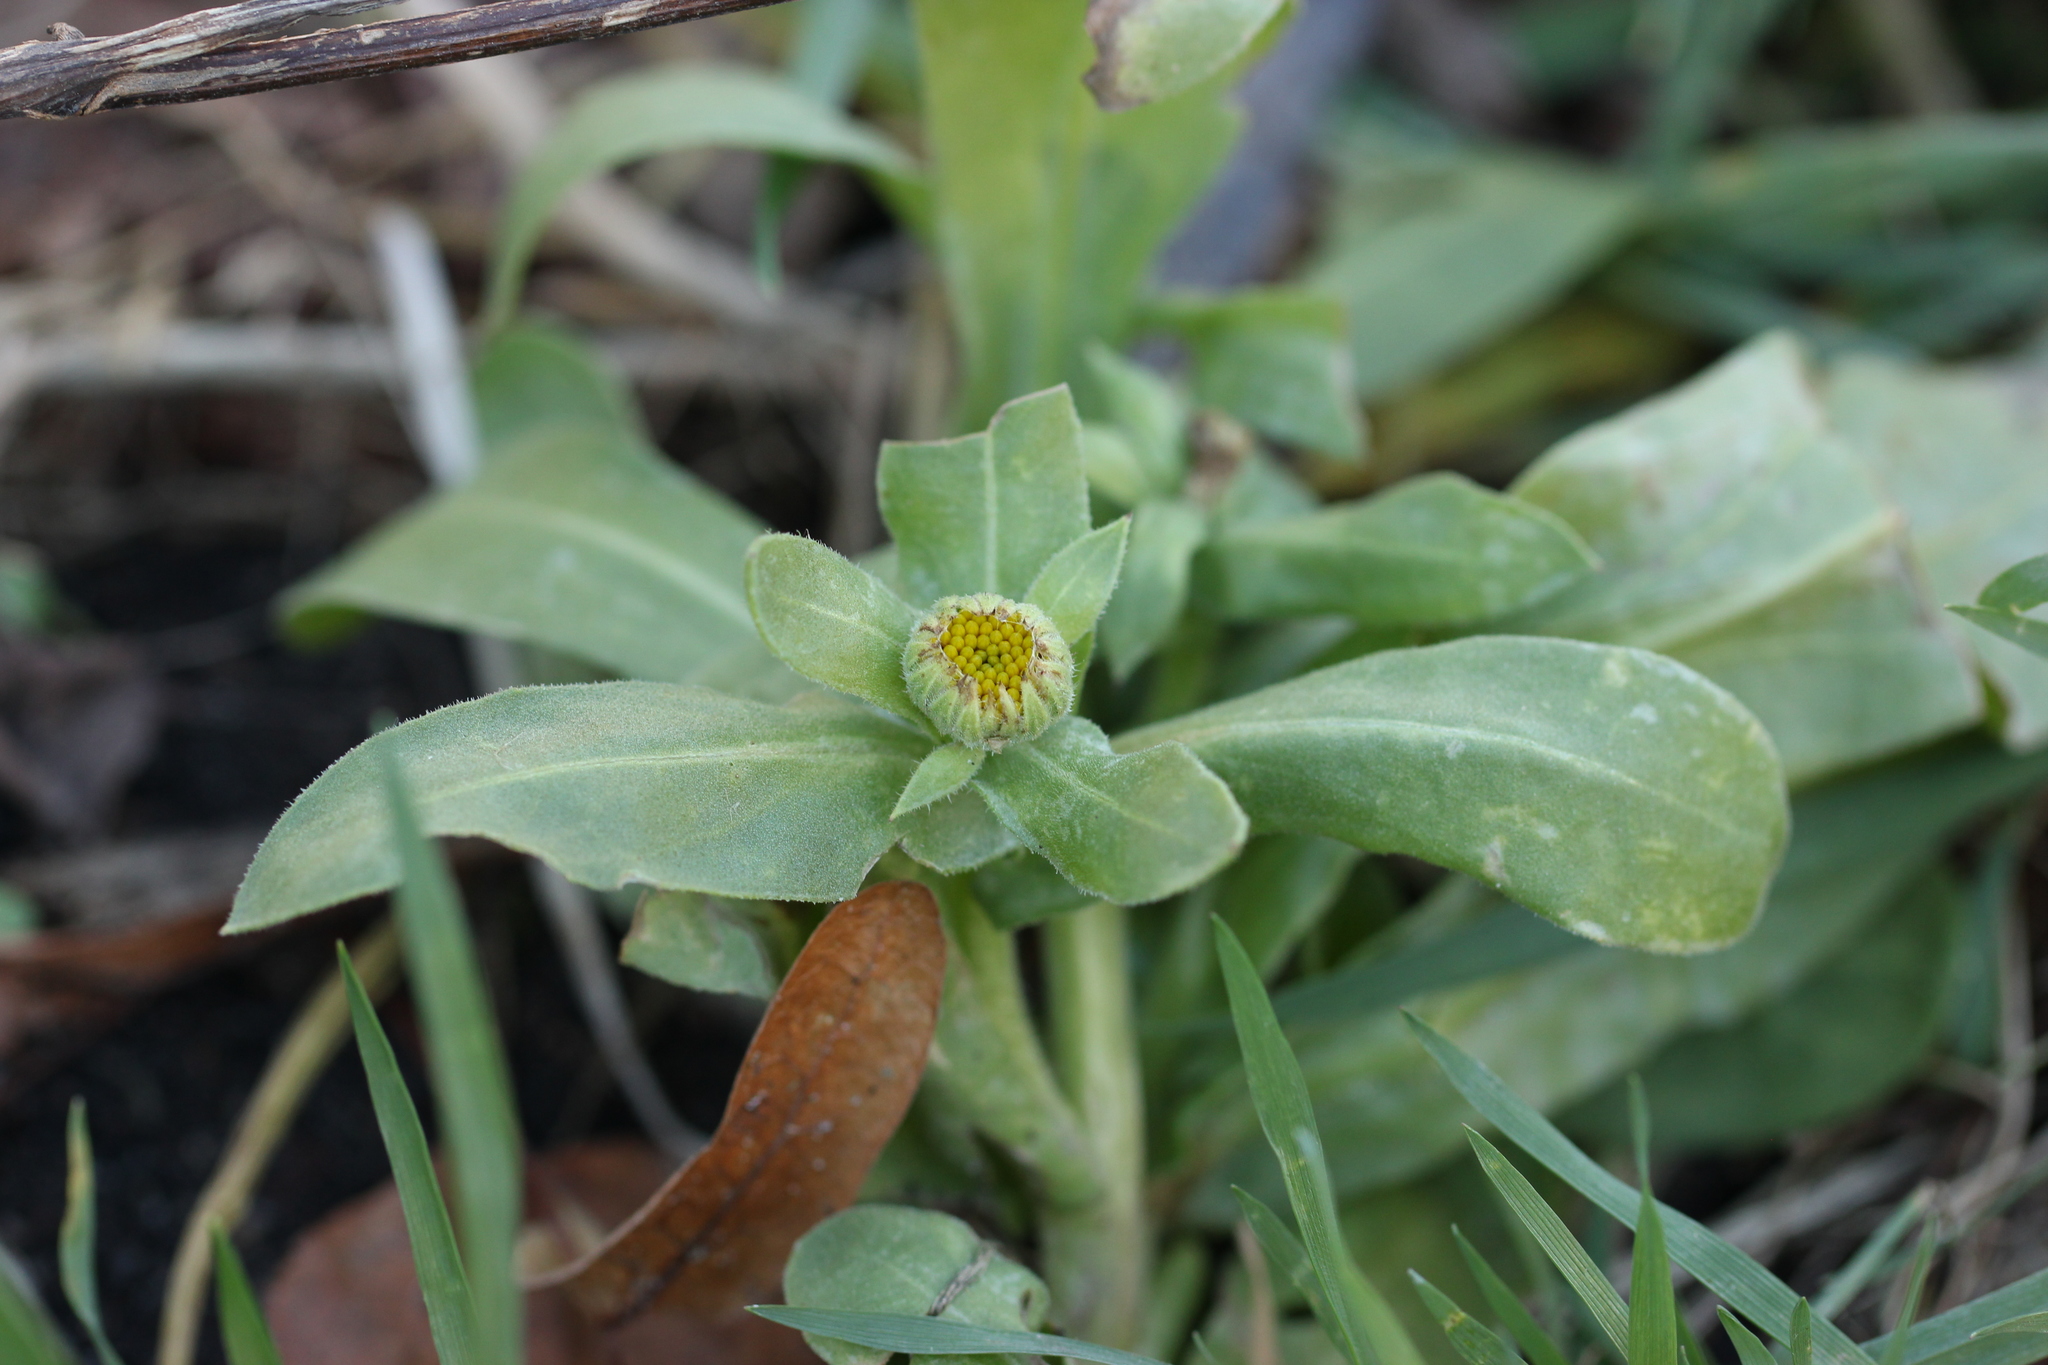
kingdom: Plantae
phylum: Tracheophyta
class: Magnoliopsida
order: Asterales
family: Asteraceae
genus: Calendula
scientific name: Calendula officinalis
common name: Pot marigold
